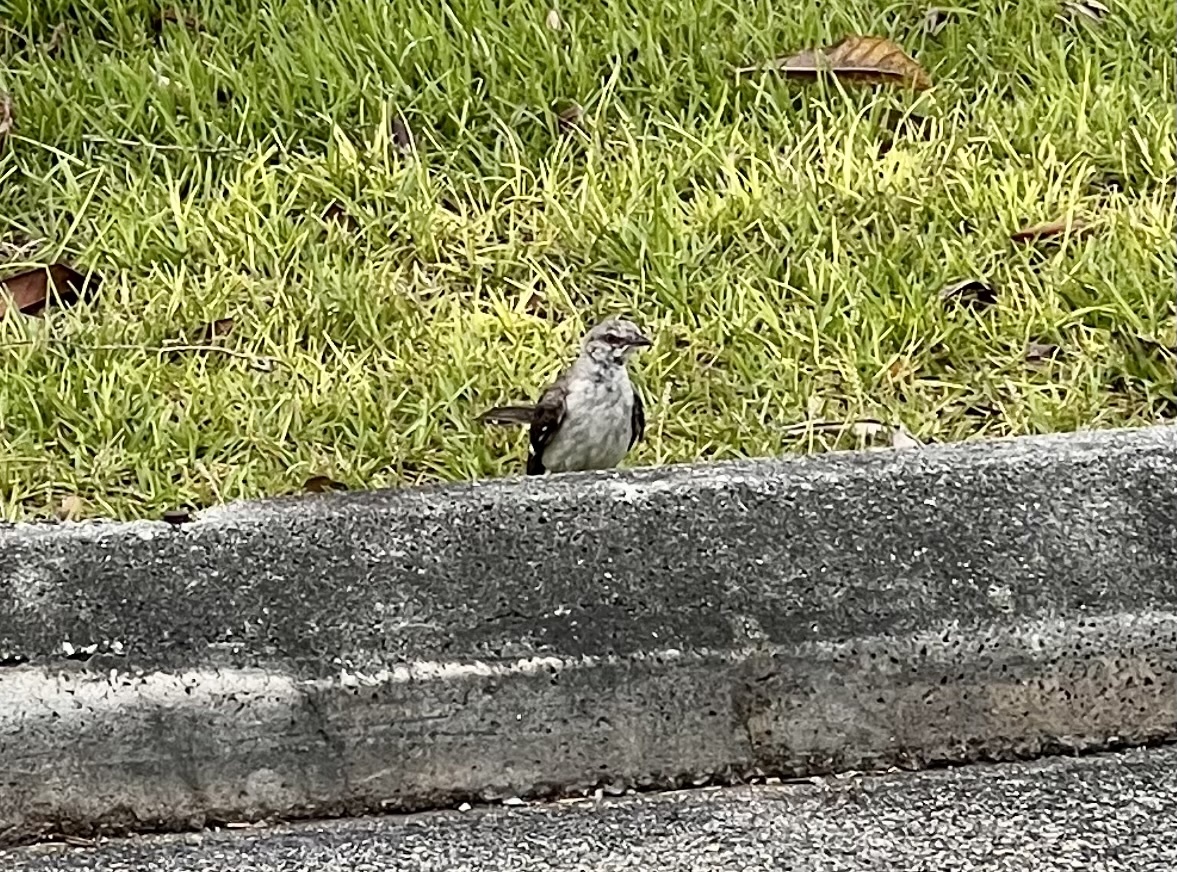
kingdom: Animalia
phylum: Chordata
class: Aves
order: Passeriformes
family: Mimidae
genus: Mimus
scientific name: Mimus polyglottos
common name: Northern mockingbird
